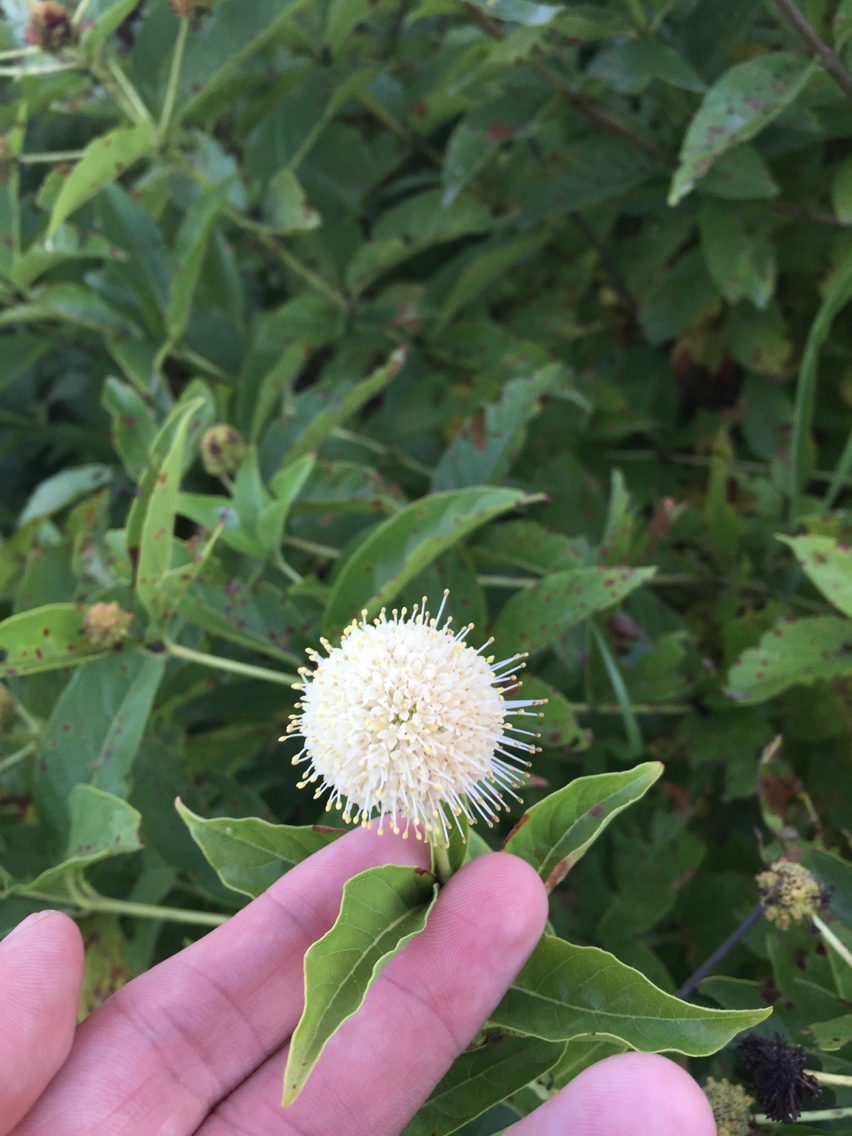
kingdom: Plantae
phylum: Tracheophyta
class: Magnoliopsida
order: Gentianales
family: Rubiaceae
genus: Cephalanthus
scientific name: Cephalanthus occidentalis
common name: Button-willow
